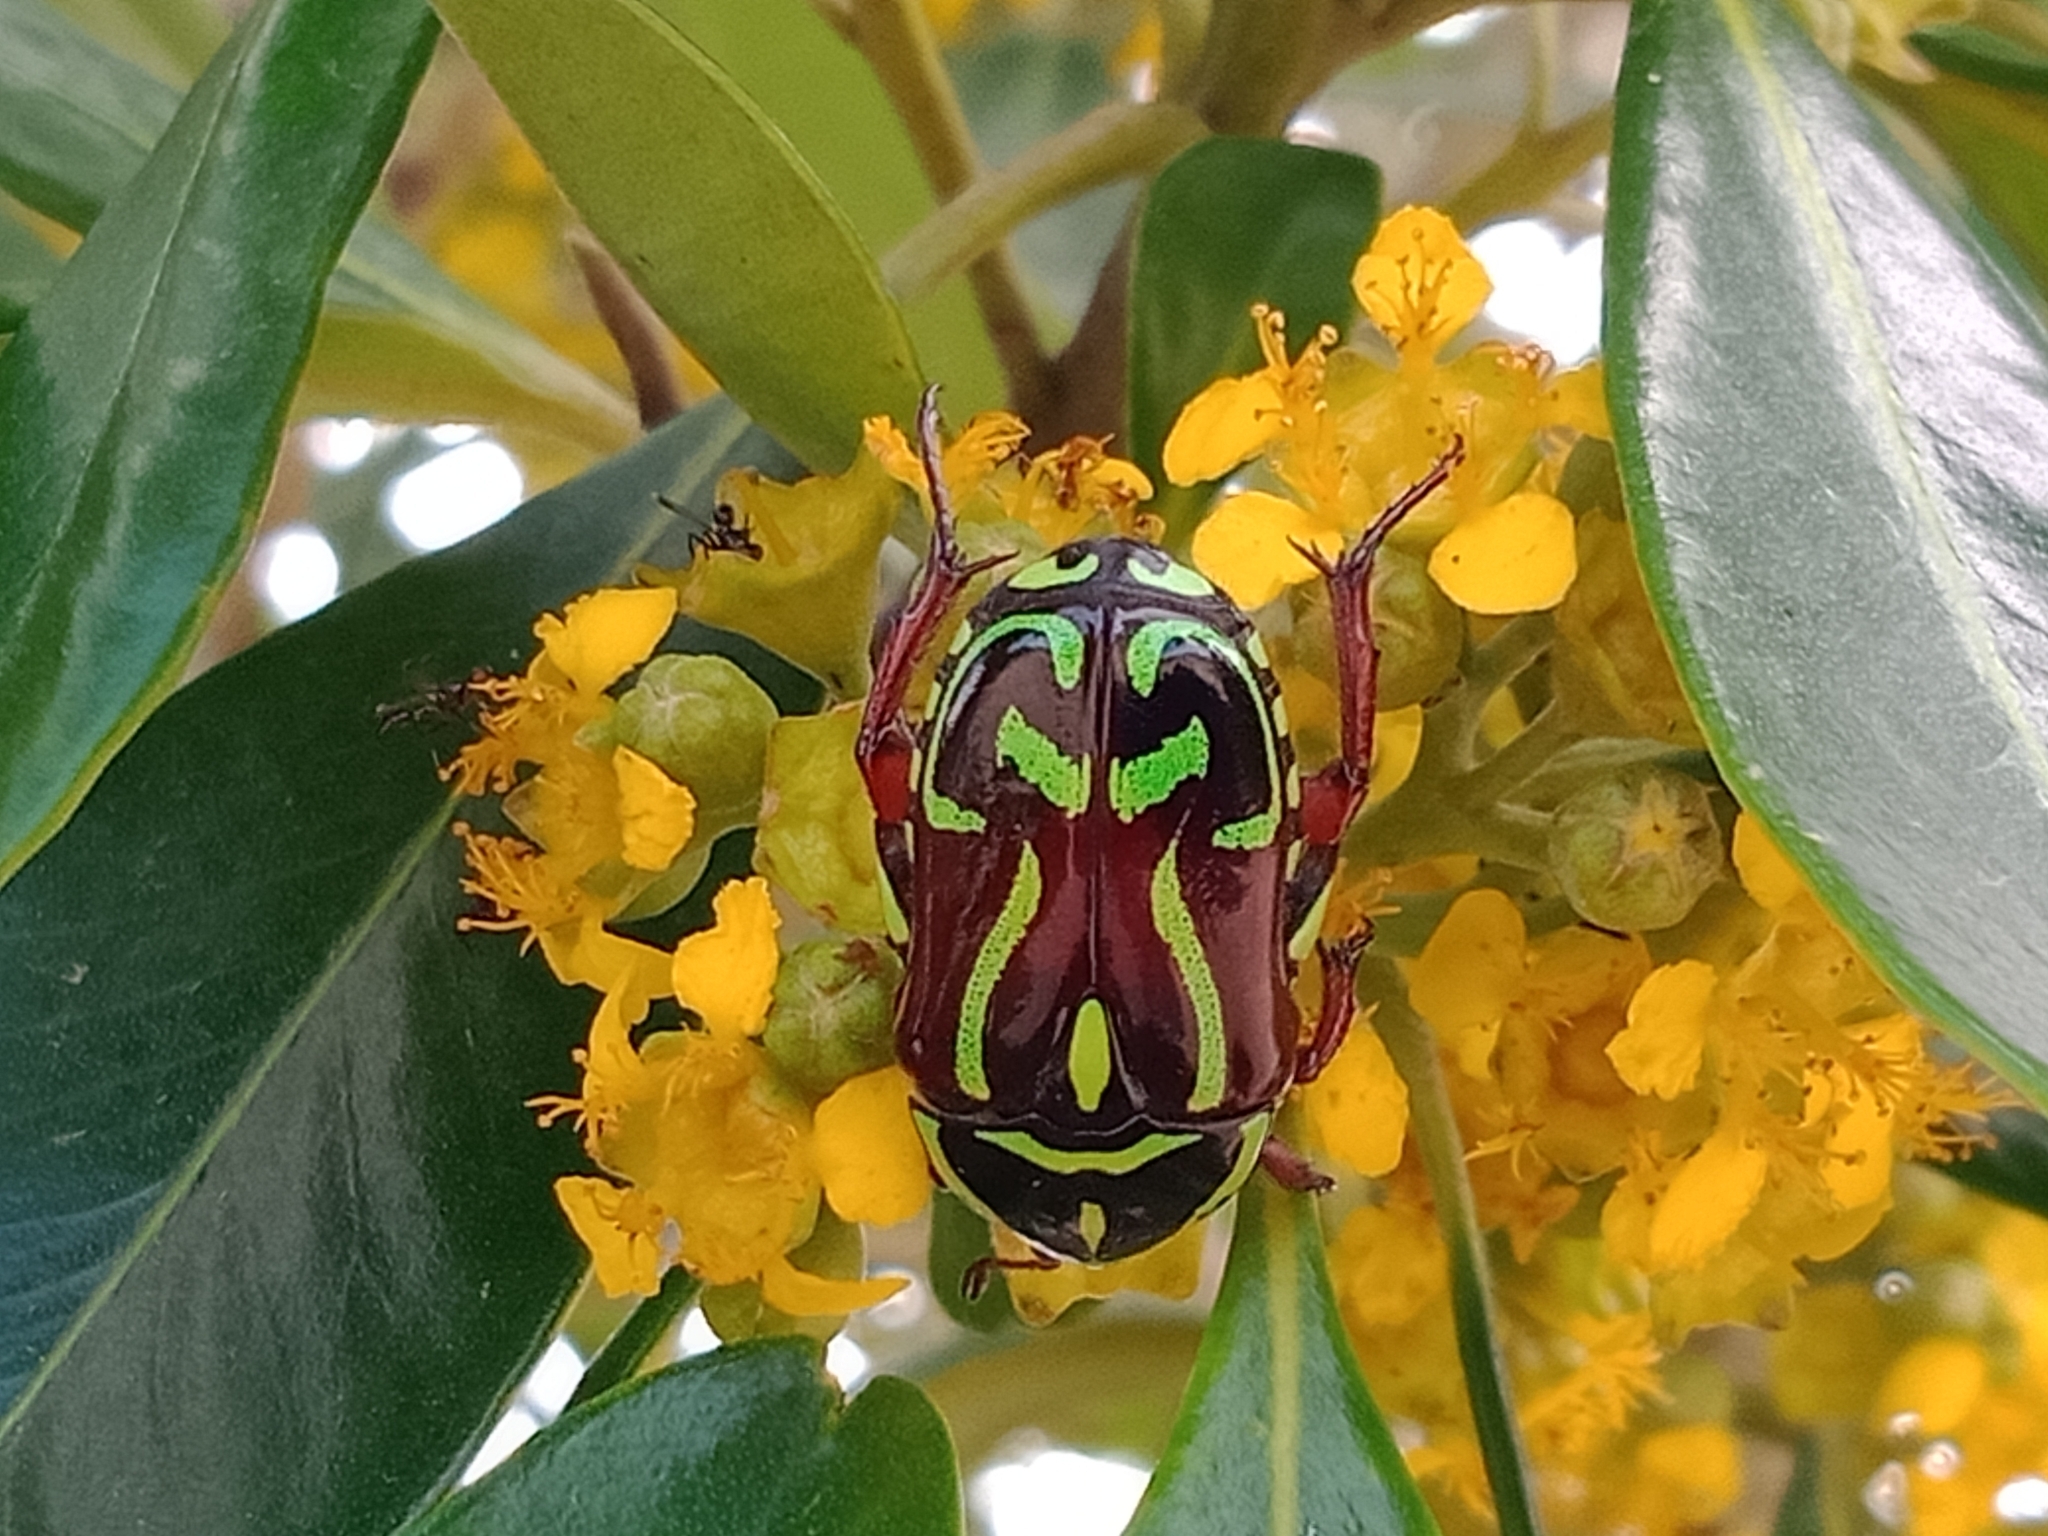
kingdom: Animalia
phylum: Arthropoda
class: Insecta
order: Coleoptera
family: Scarabaeidae
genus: Eupoecila
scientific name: Eupoecila australasiae
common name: Fiddler beetle
